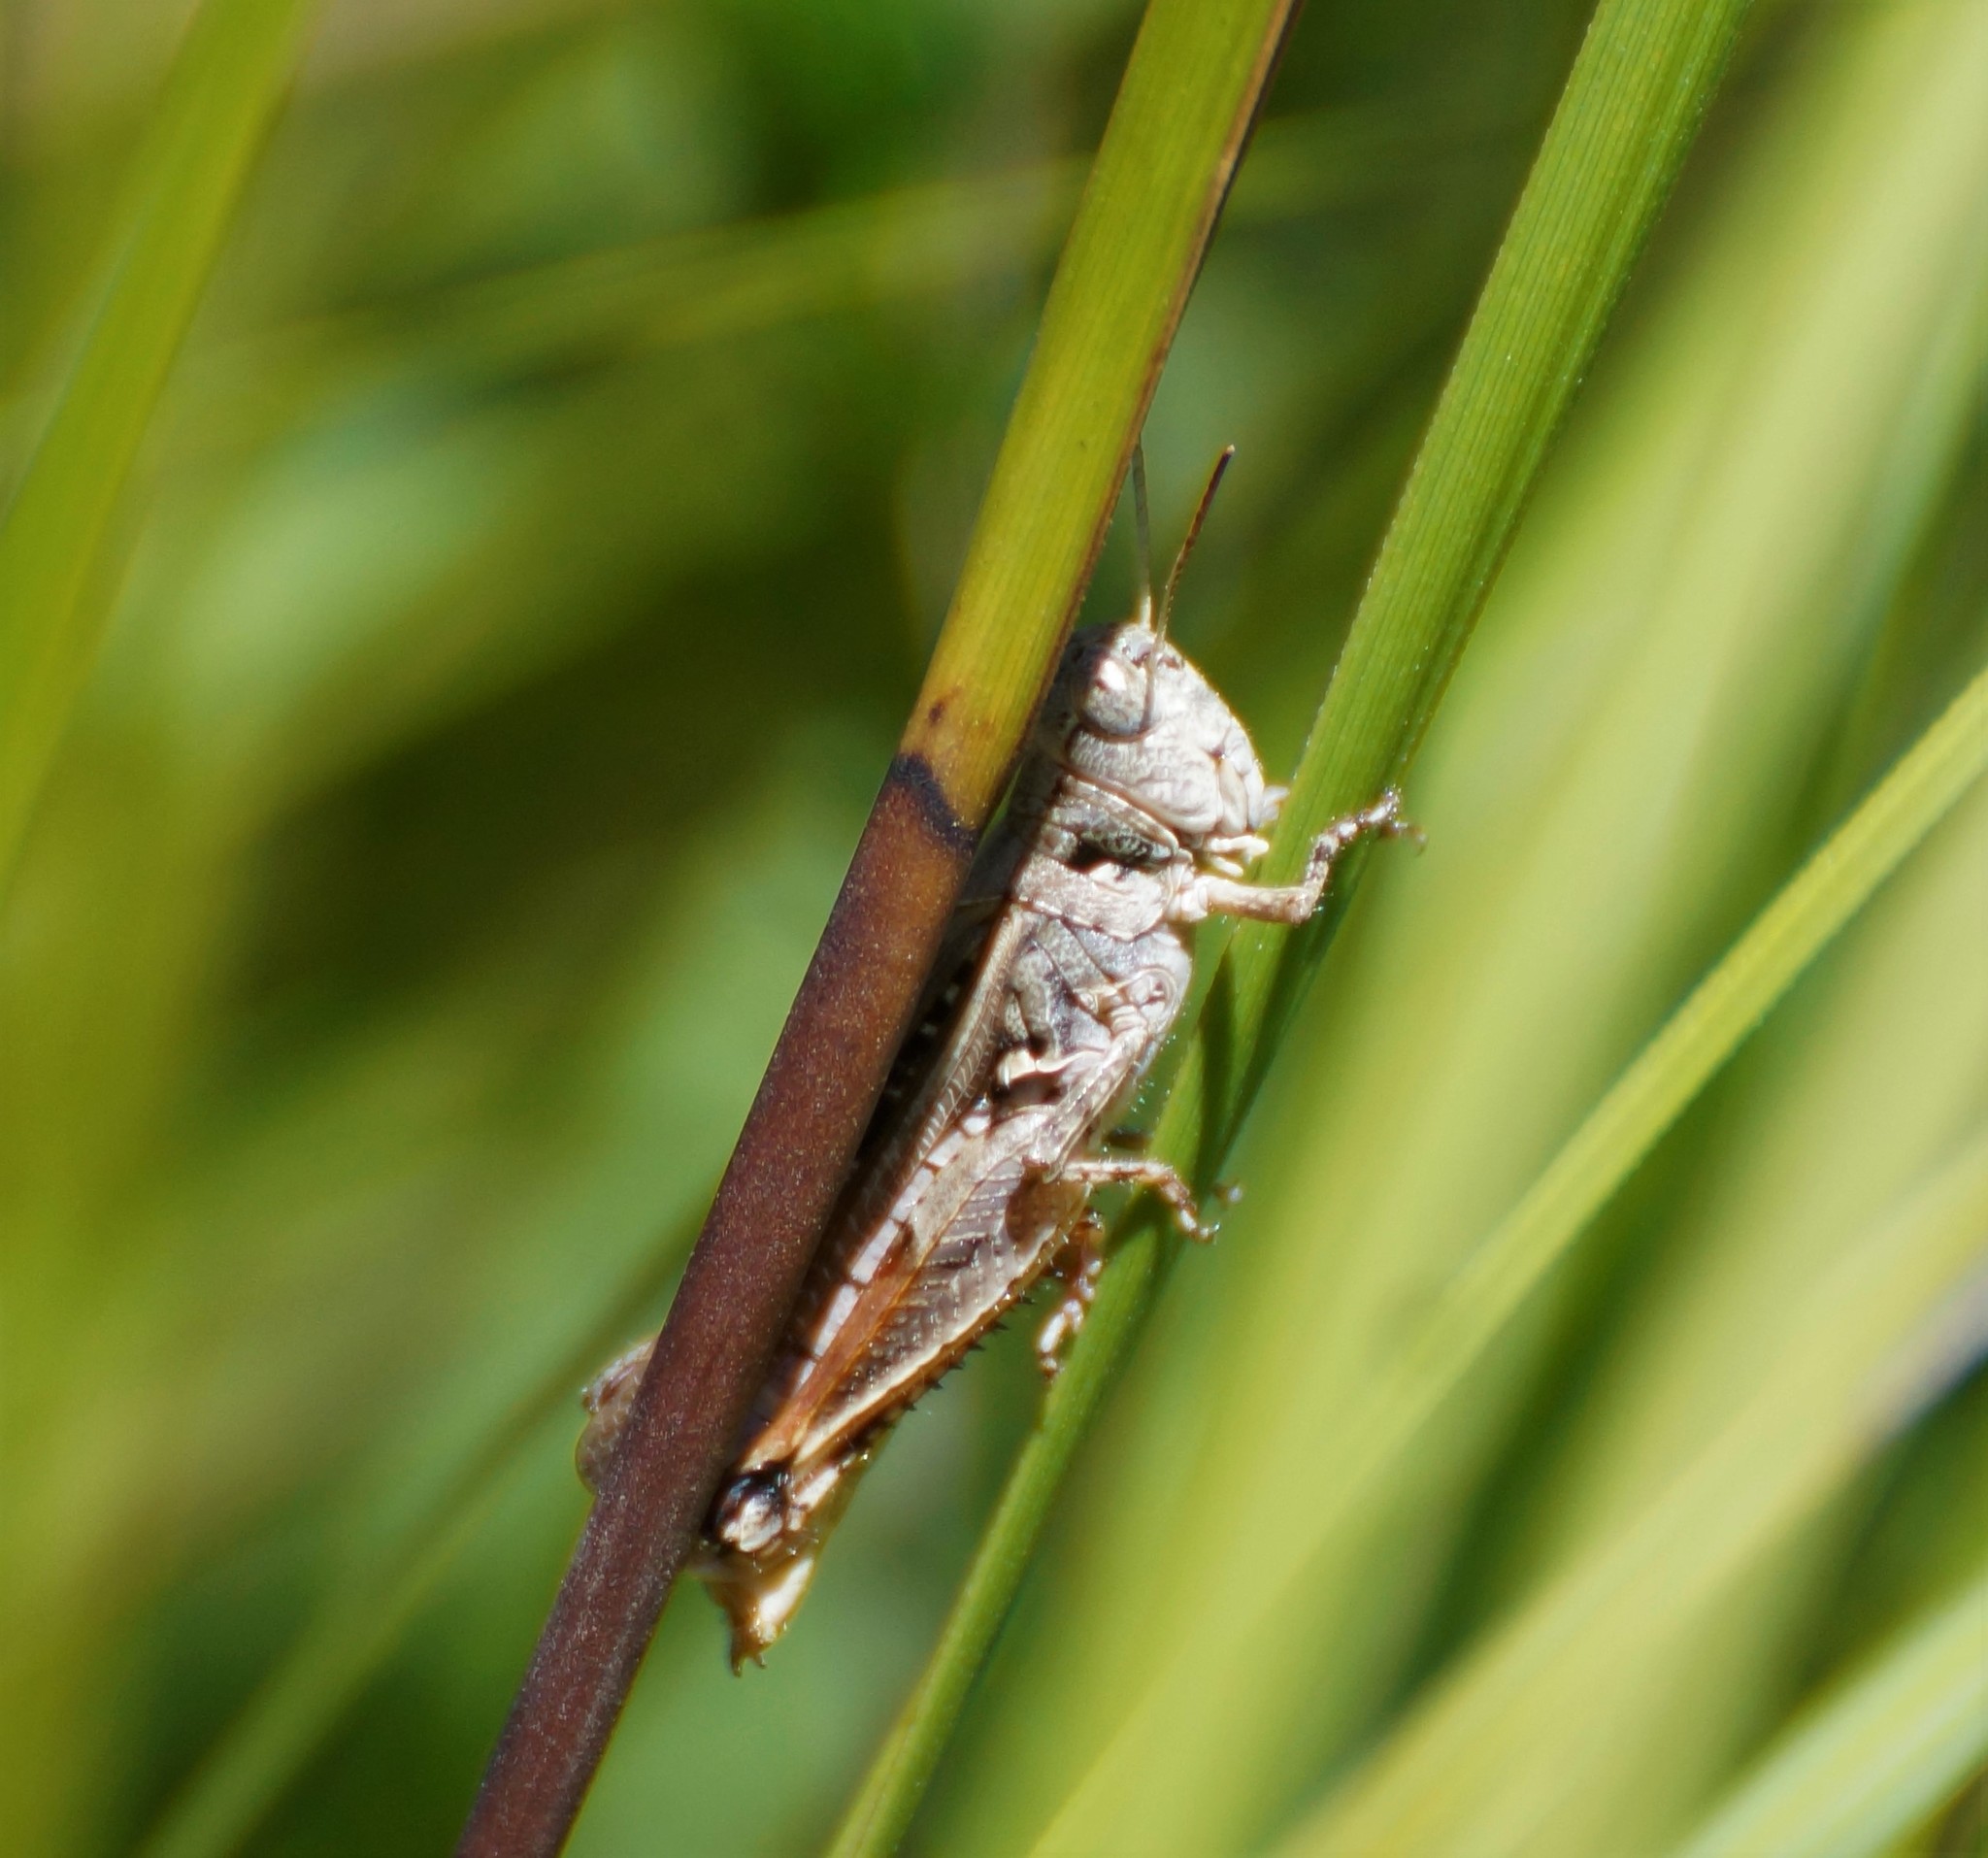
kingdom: Animalia
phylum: Arthropoda
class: Insecta
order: Orthoptera
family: Acrididae
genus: Exarna
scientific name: Exarna includens
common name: Red-legged exarna
